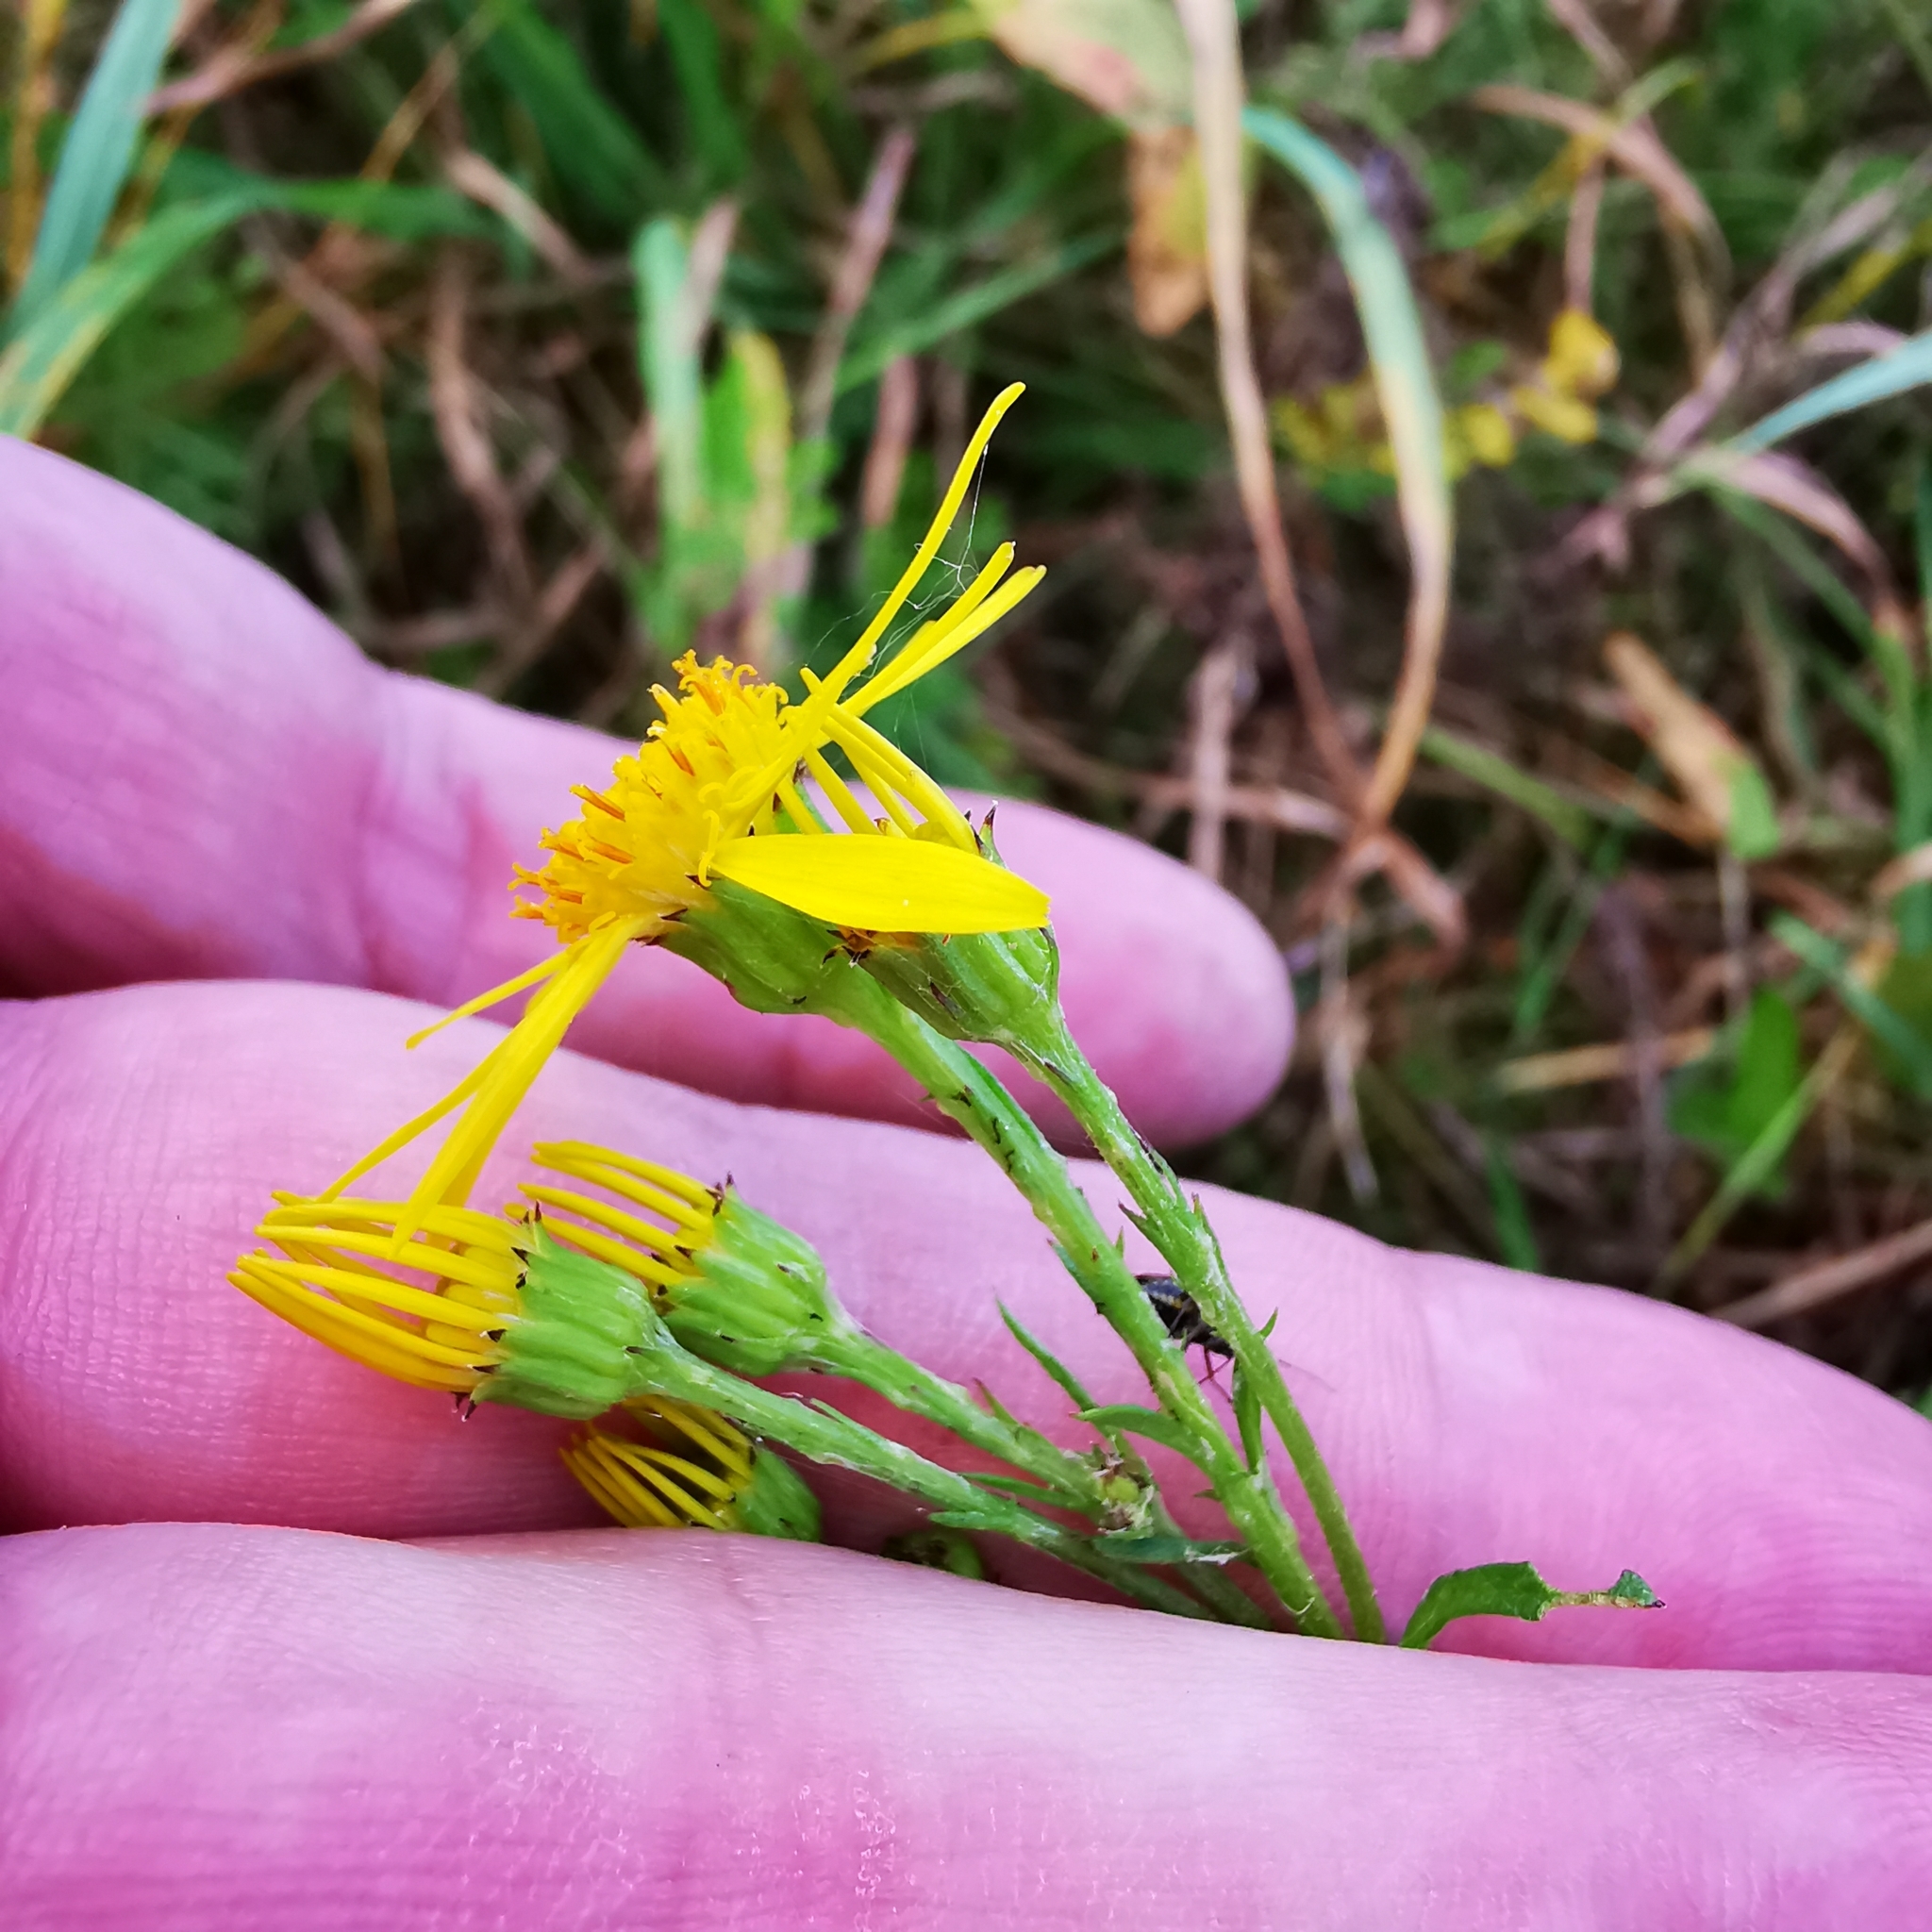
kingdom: Plantae
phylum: Tracheophyta
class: Magnoliopsida
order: Asterales
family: Asteraceae
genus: Jacobaea
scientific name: Jacobaea vulgaris
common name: Stinking willie
